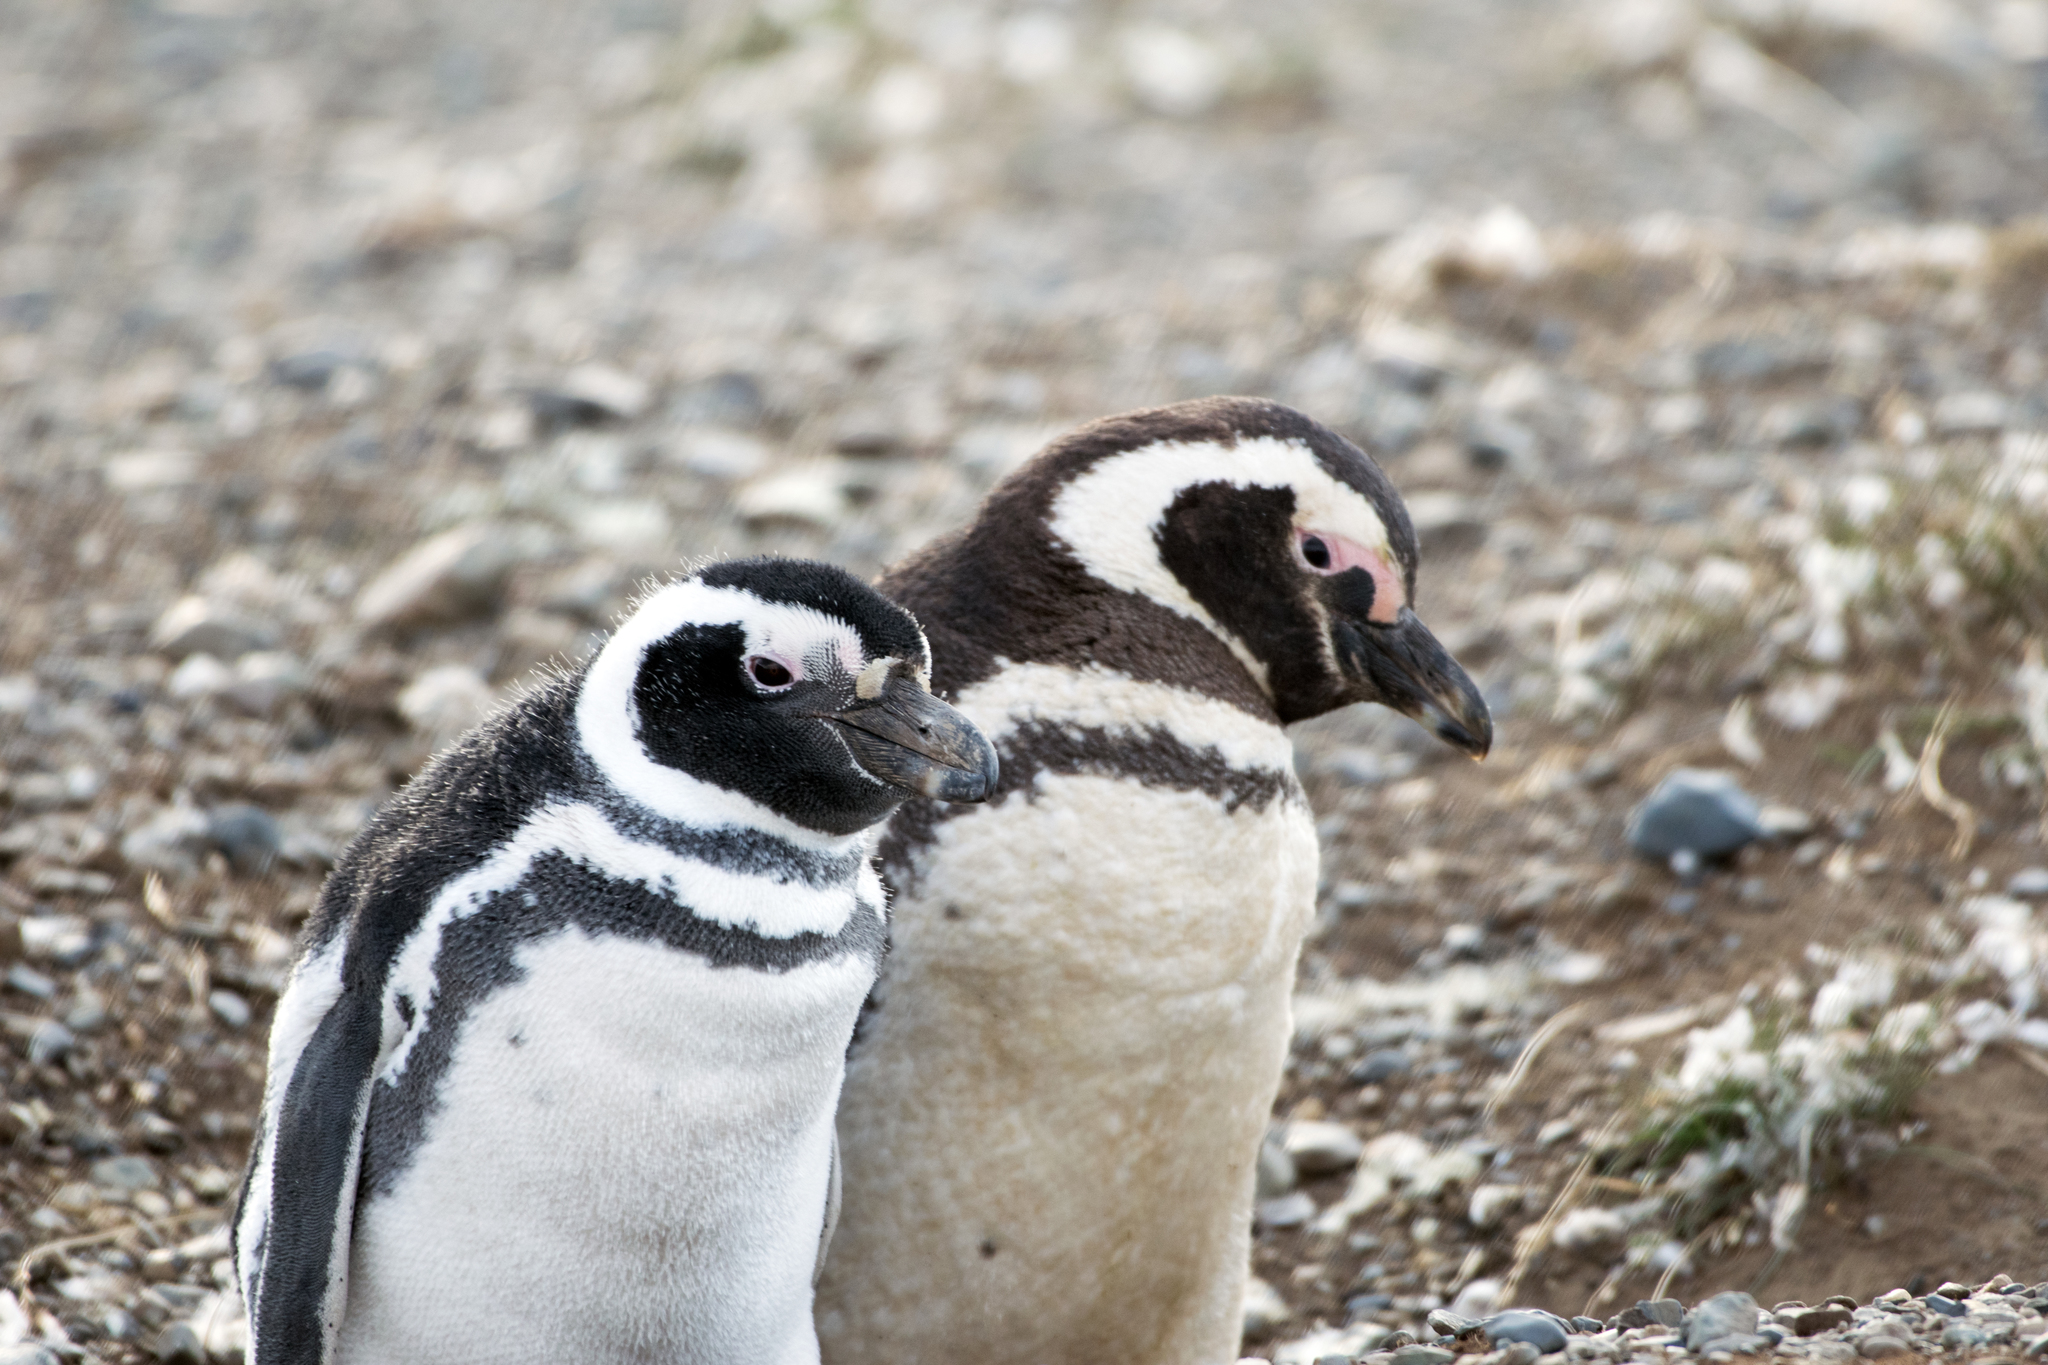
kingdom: Animalia
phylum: Chordata
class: Aves
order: Sphenisciformes
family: Spheniscidae
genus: Spheniscus
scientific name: Spheniscus magellanicus
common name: Magellanic penguin
